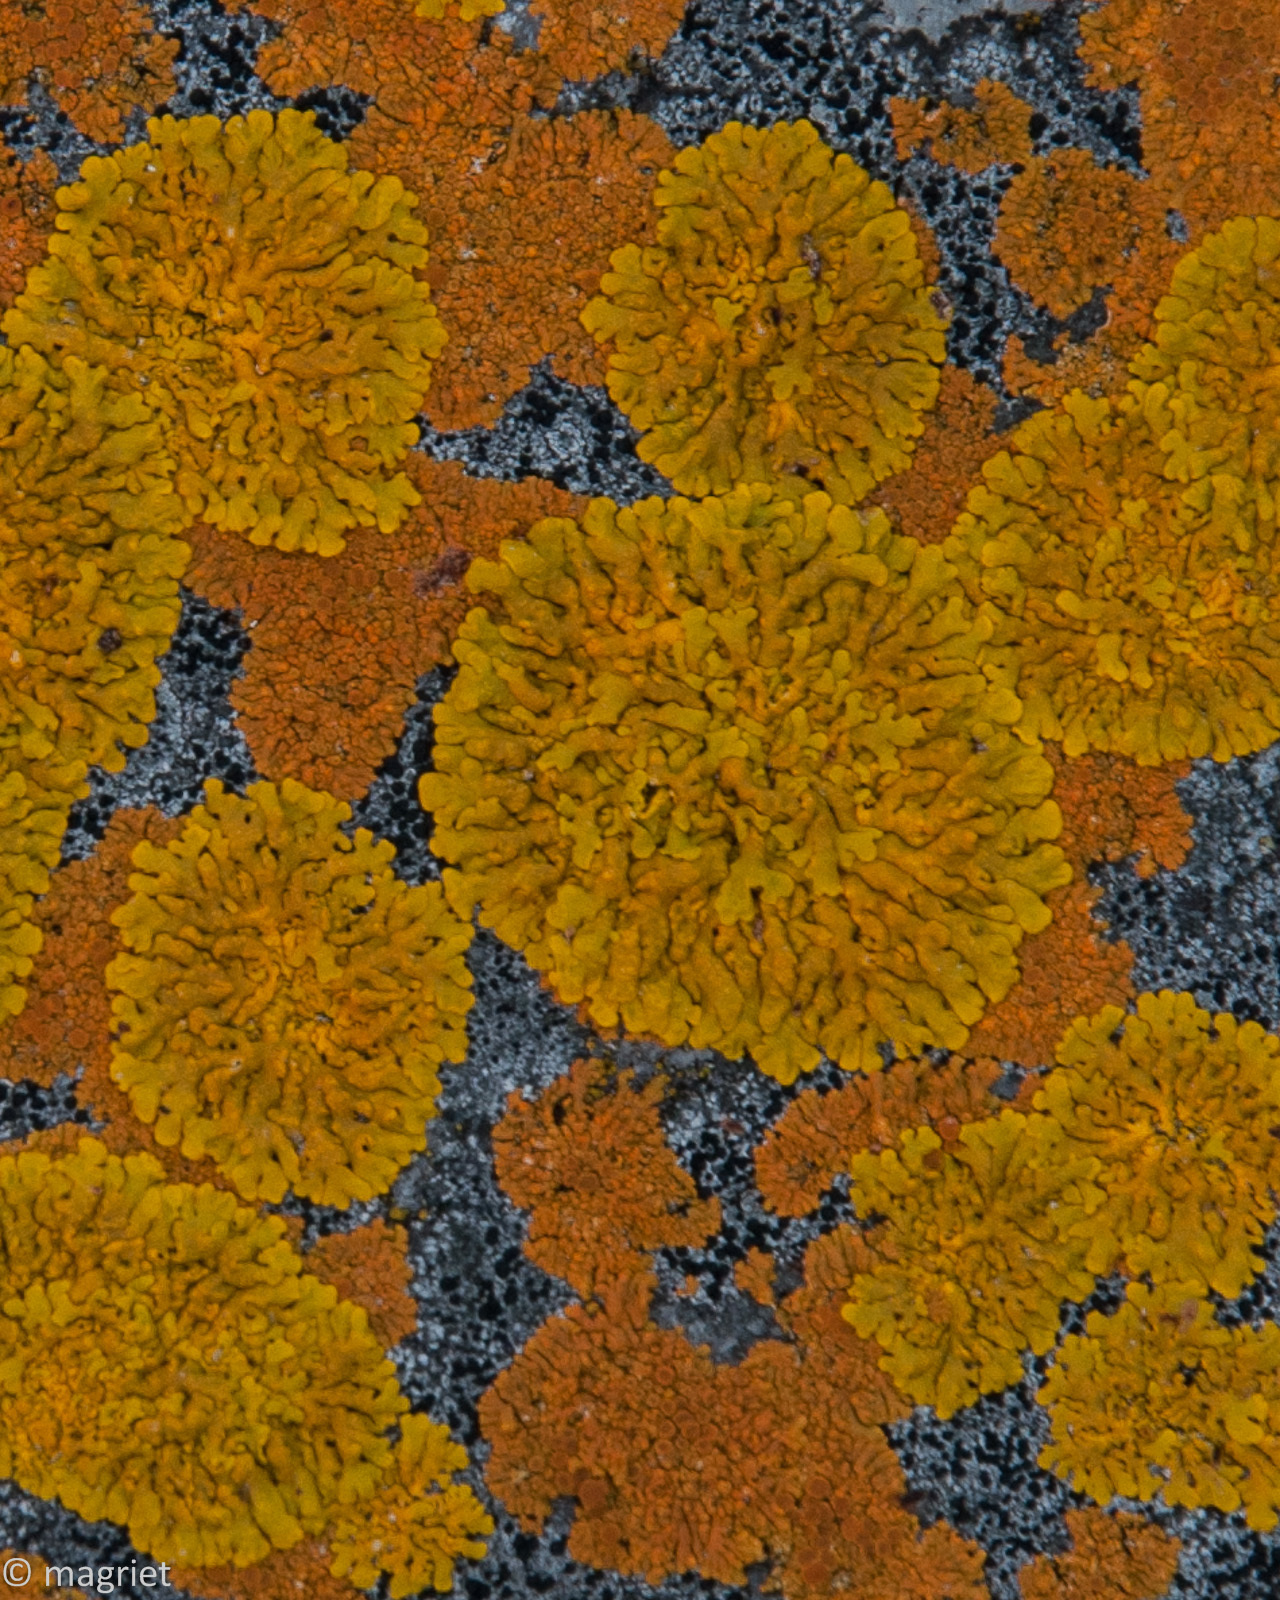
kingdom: Fungi
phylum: Ascomycota
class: Lecanoromycetes
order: Teloschistales
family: Teloschistaceae
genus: Dufourea
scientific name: Dufourea capensis
